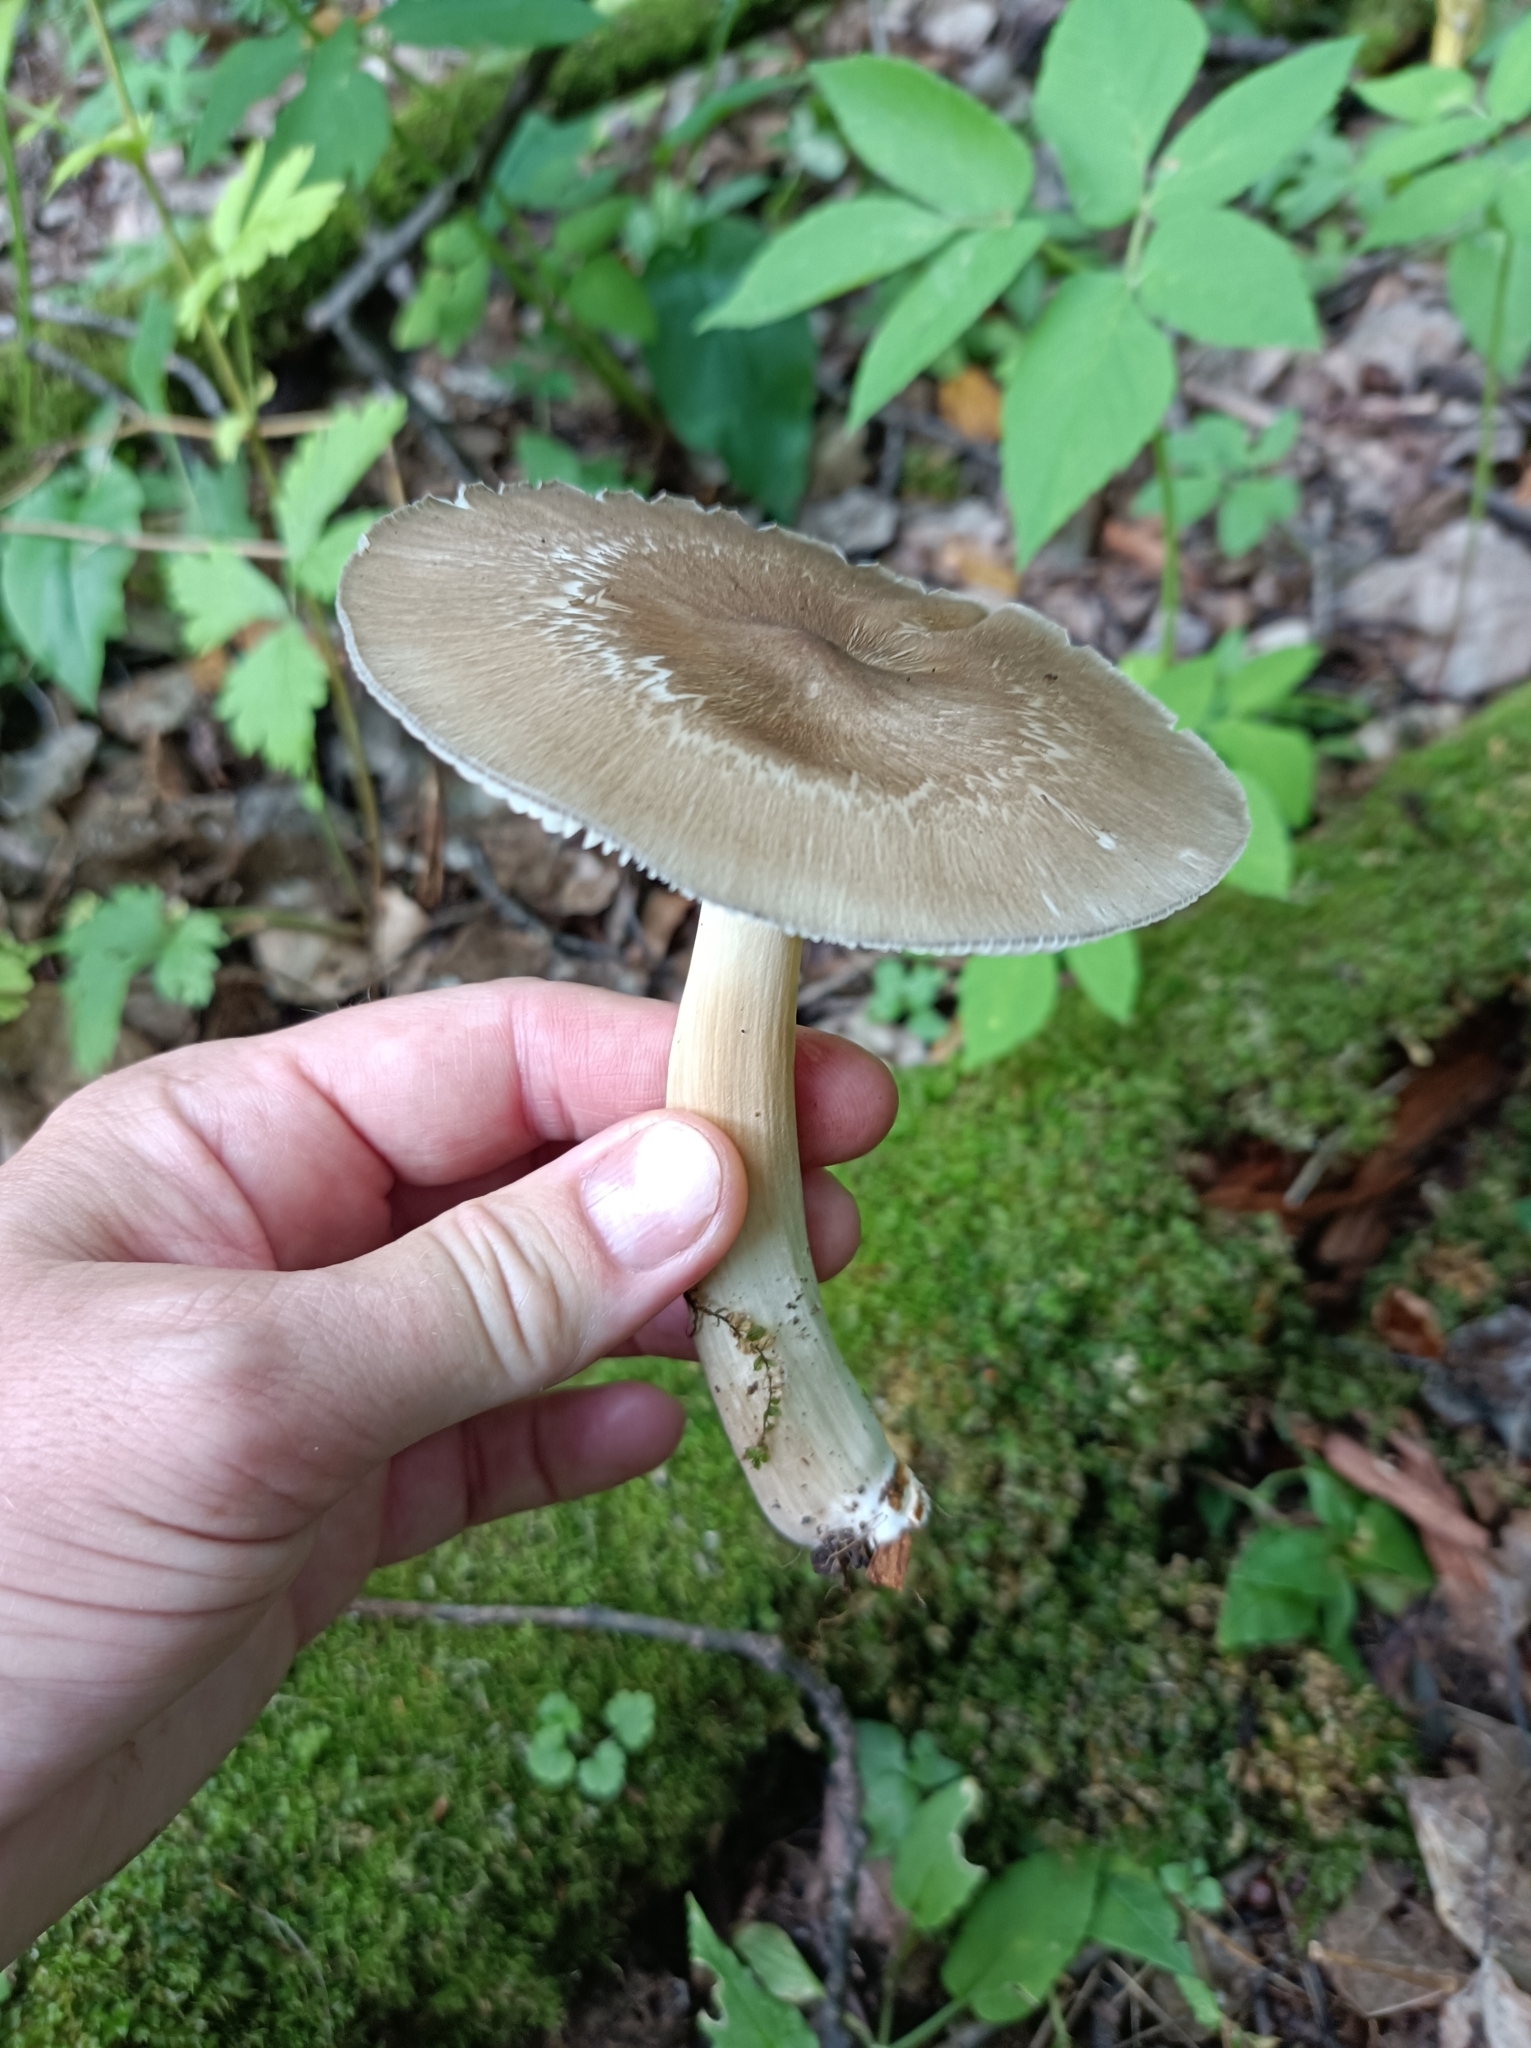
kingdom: Fungi
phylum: Basidiomycota
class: Agaricomycetes
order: Agaricales
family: Tricholomataceae
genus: Megacollybia
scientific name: Megacollybia platyphylla
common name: Whitelaced shank
